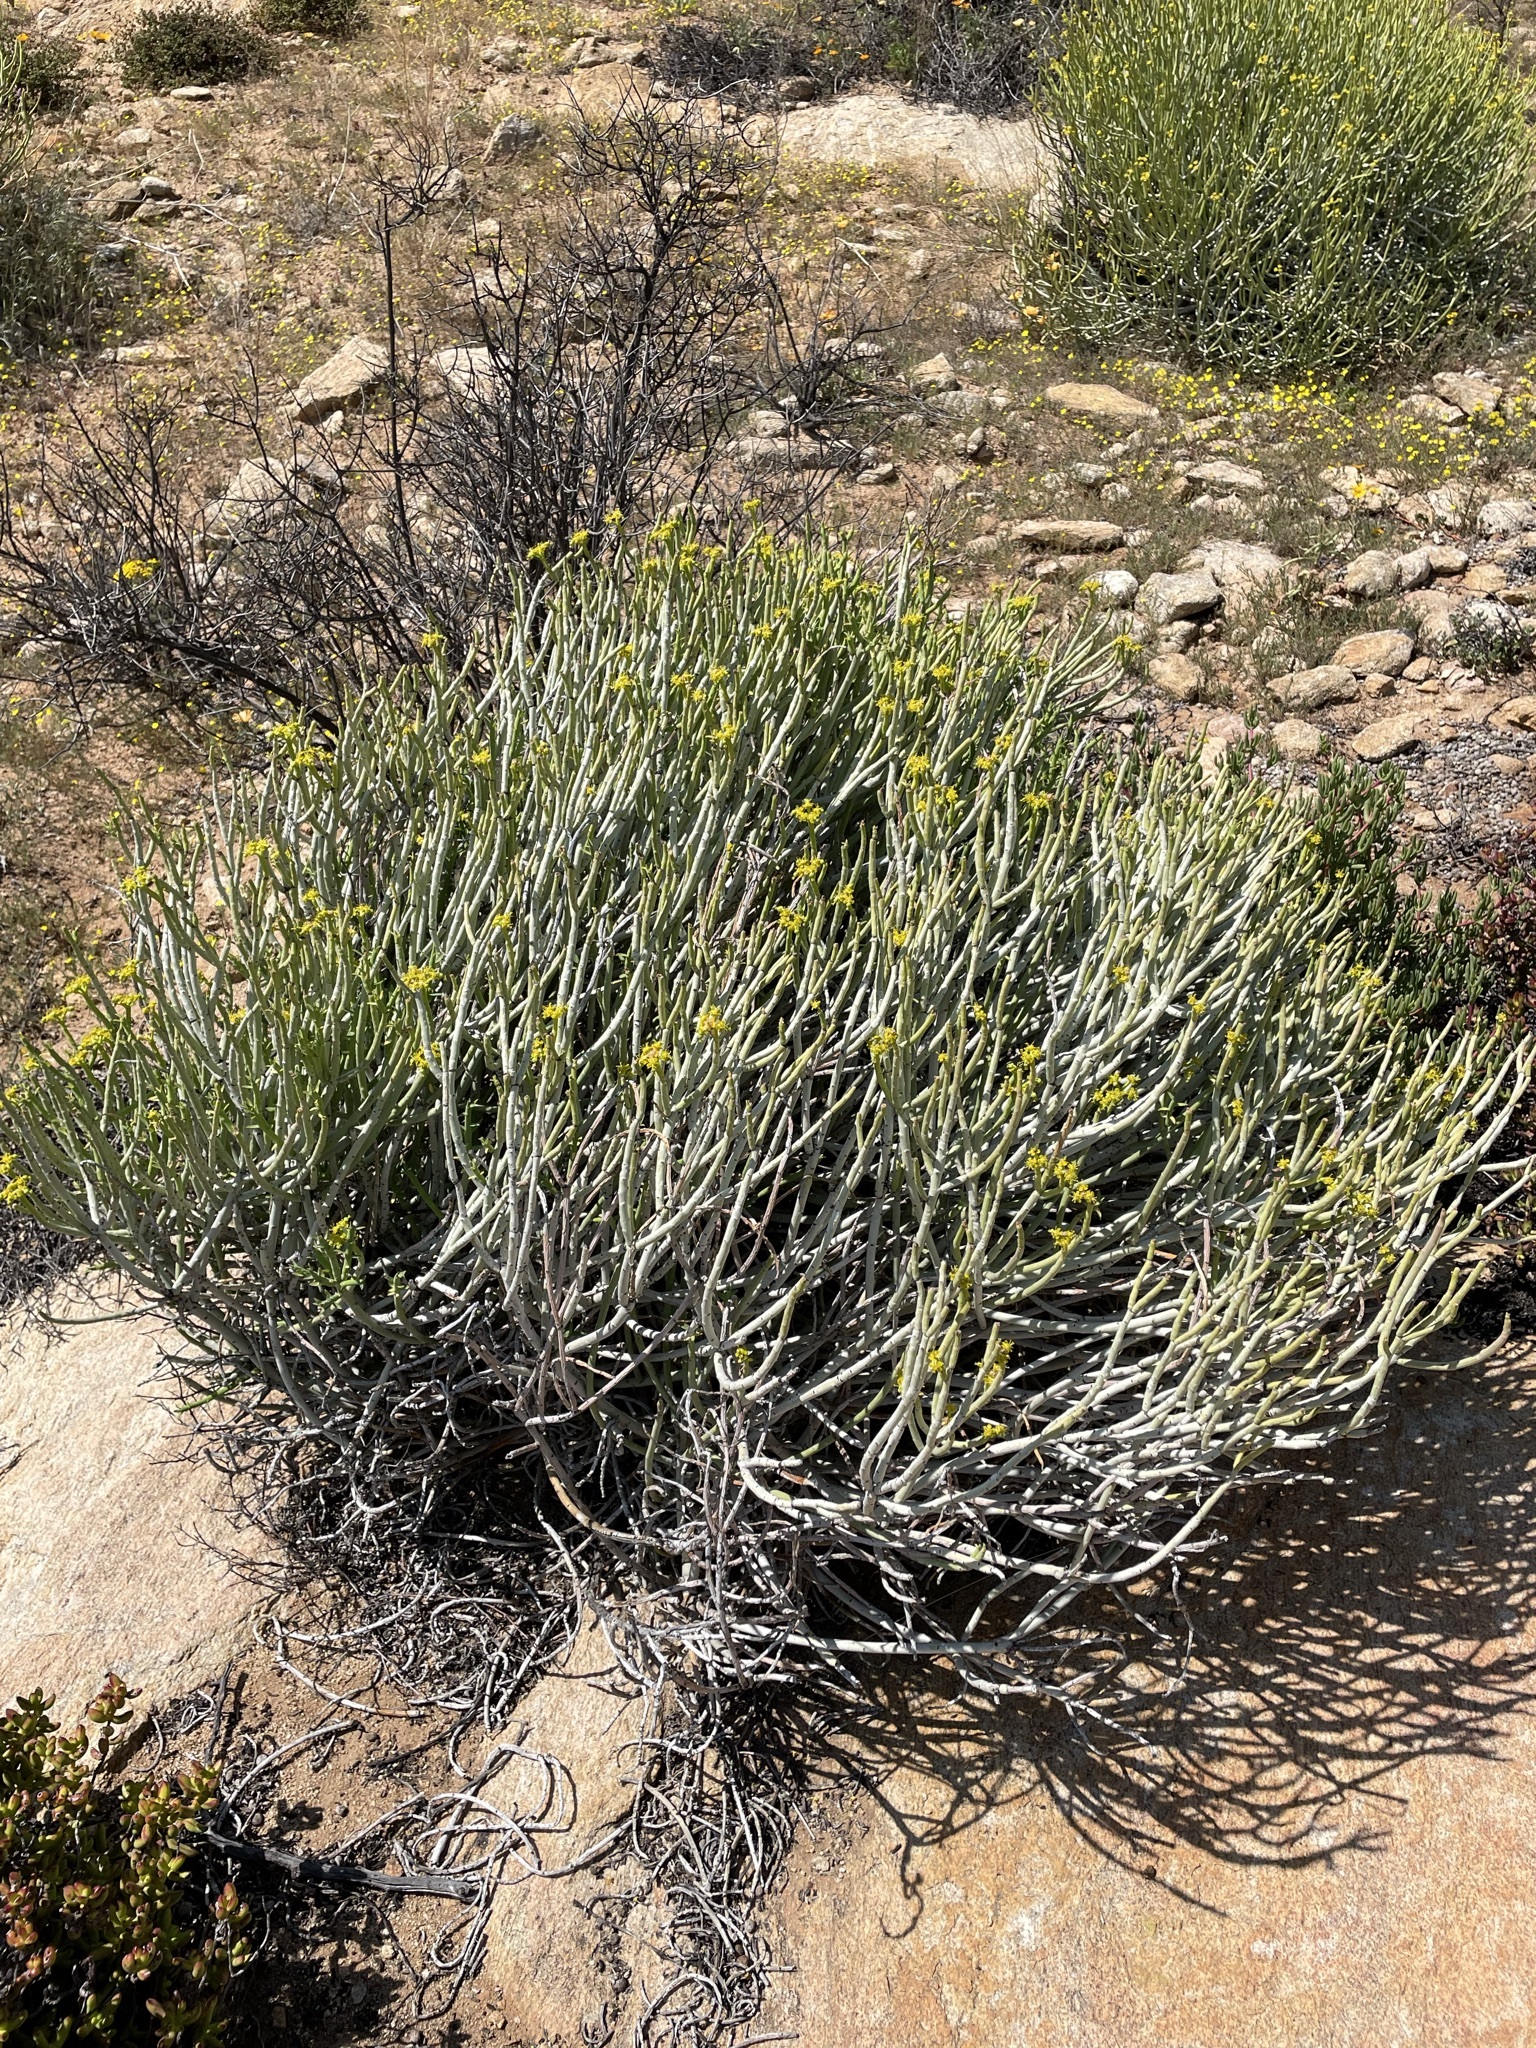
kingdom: Plantae
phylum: Tracheophyta
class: Magnoliopsida
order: Malpighiales
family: Euphorbiaceae
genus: Euphorbia
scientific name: Euphorbia mauritanica
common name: Jackal's-food
